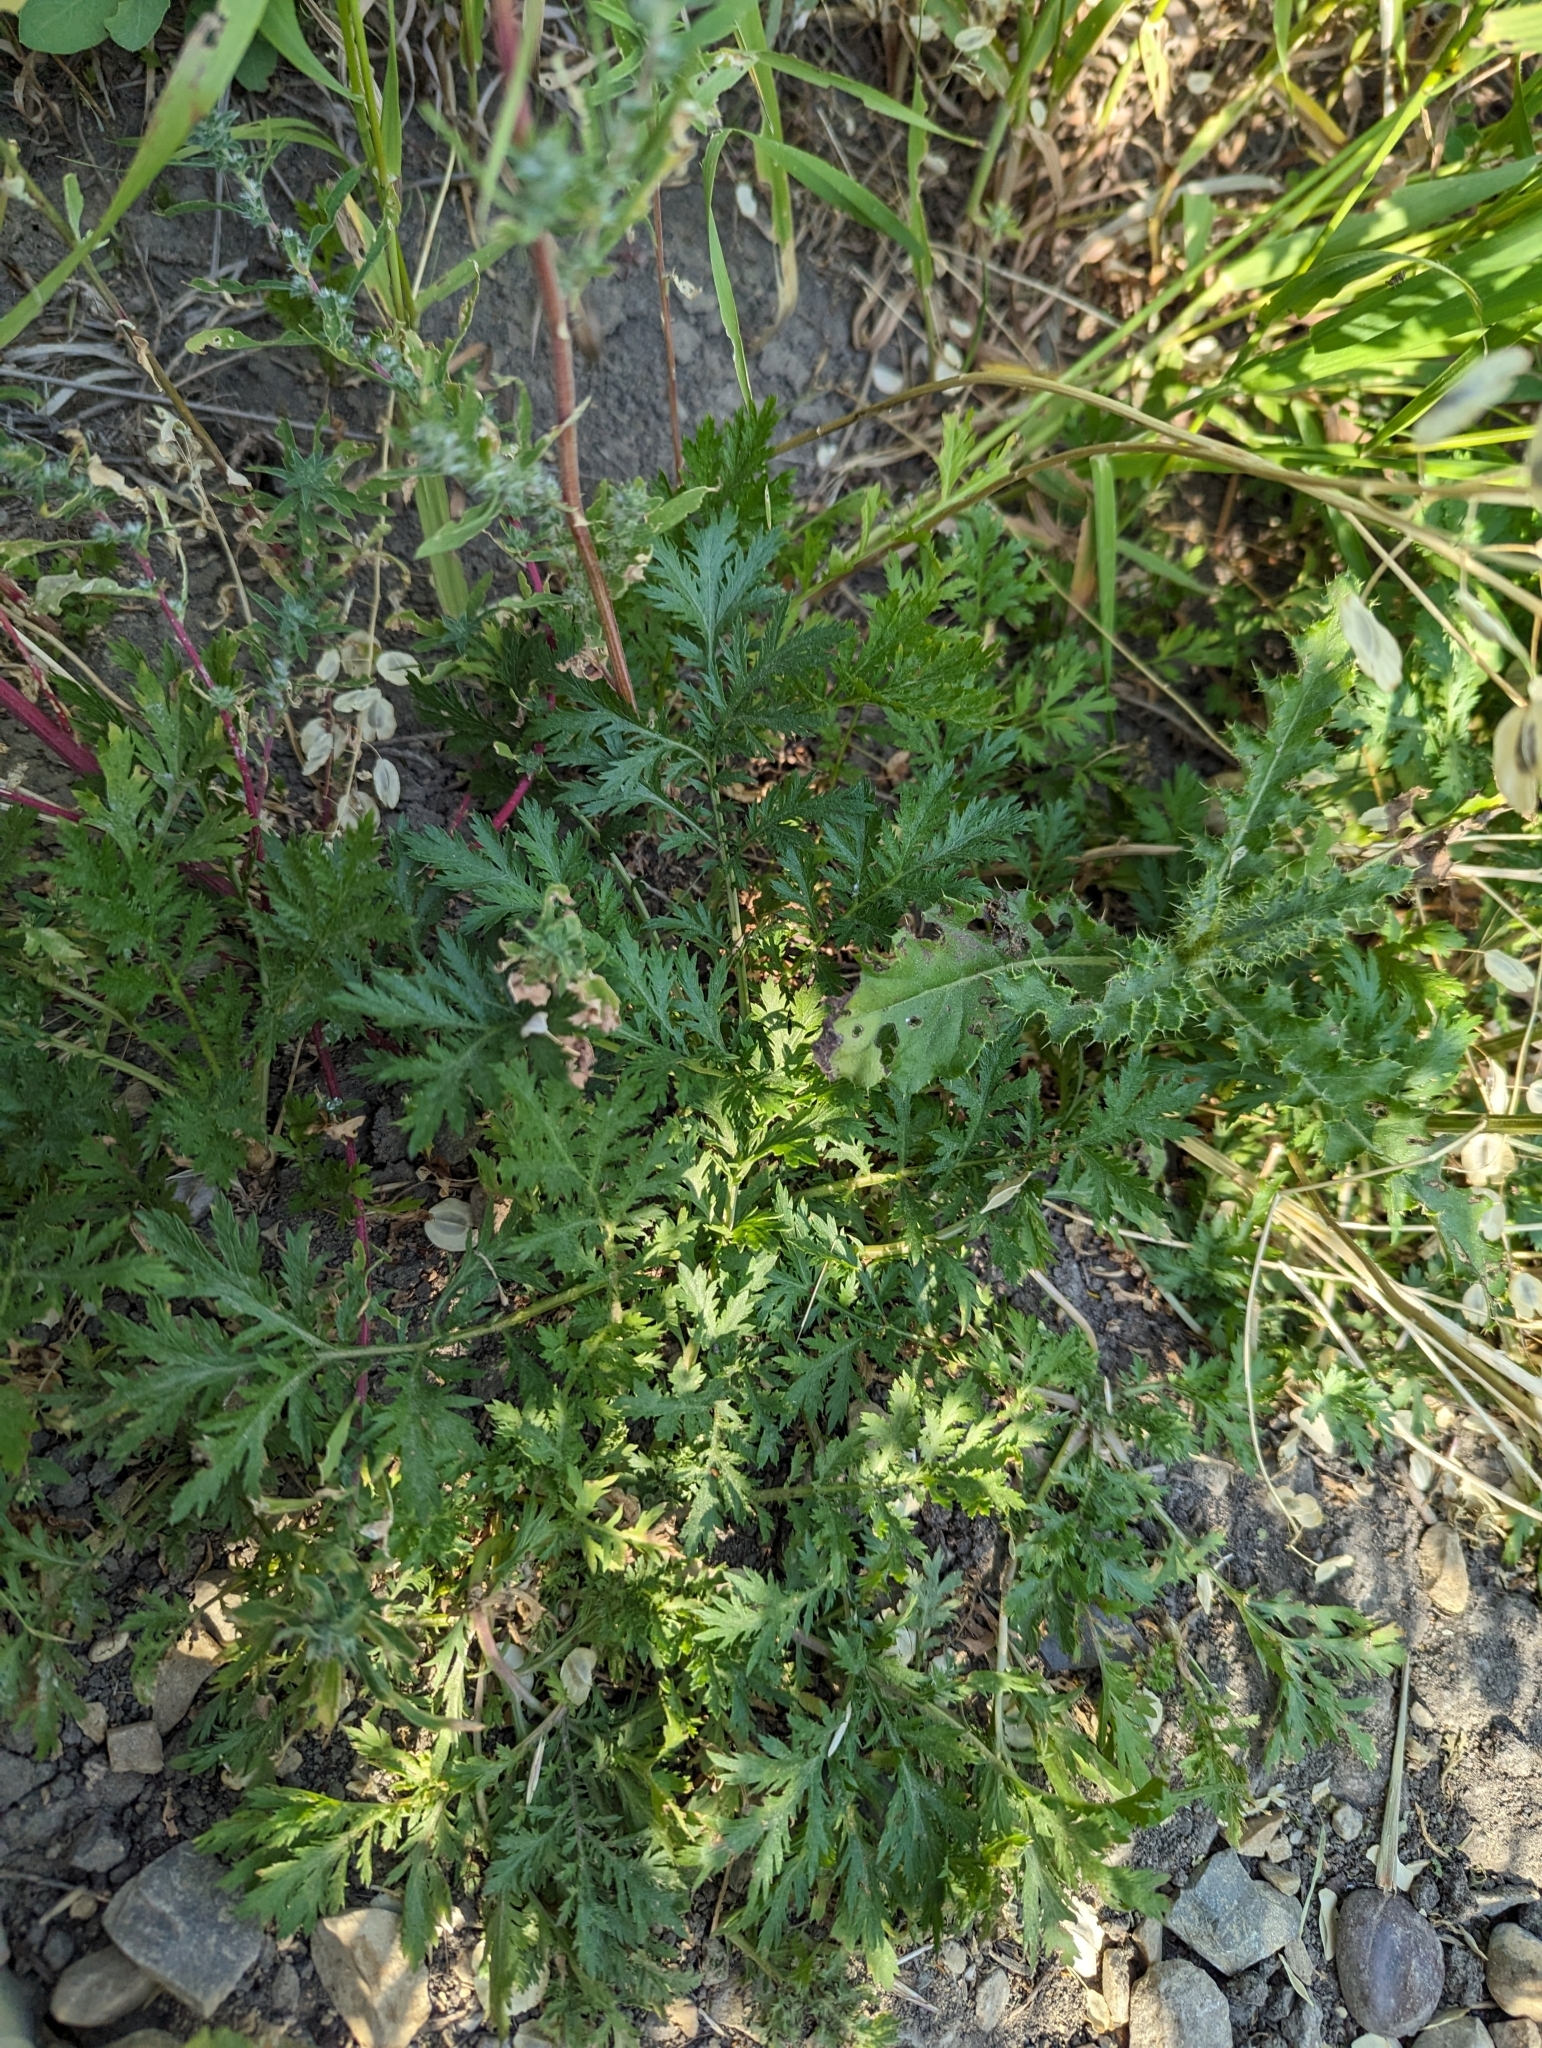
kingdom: Plantae
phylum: Tracheophyta
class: Magnoliopsida
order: Asterales
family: Asteraceae
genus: Artemisia
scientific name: Artemisia biennis
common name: Biennial wormwood
